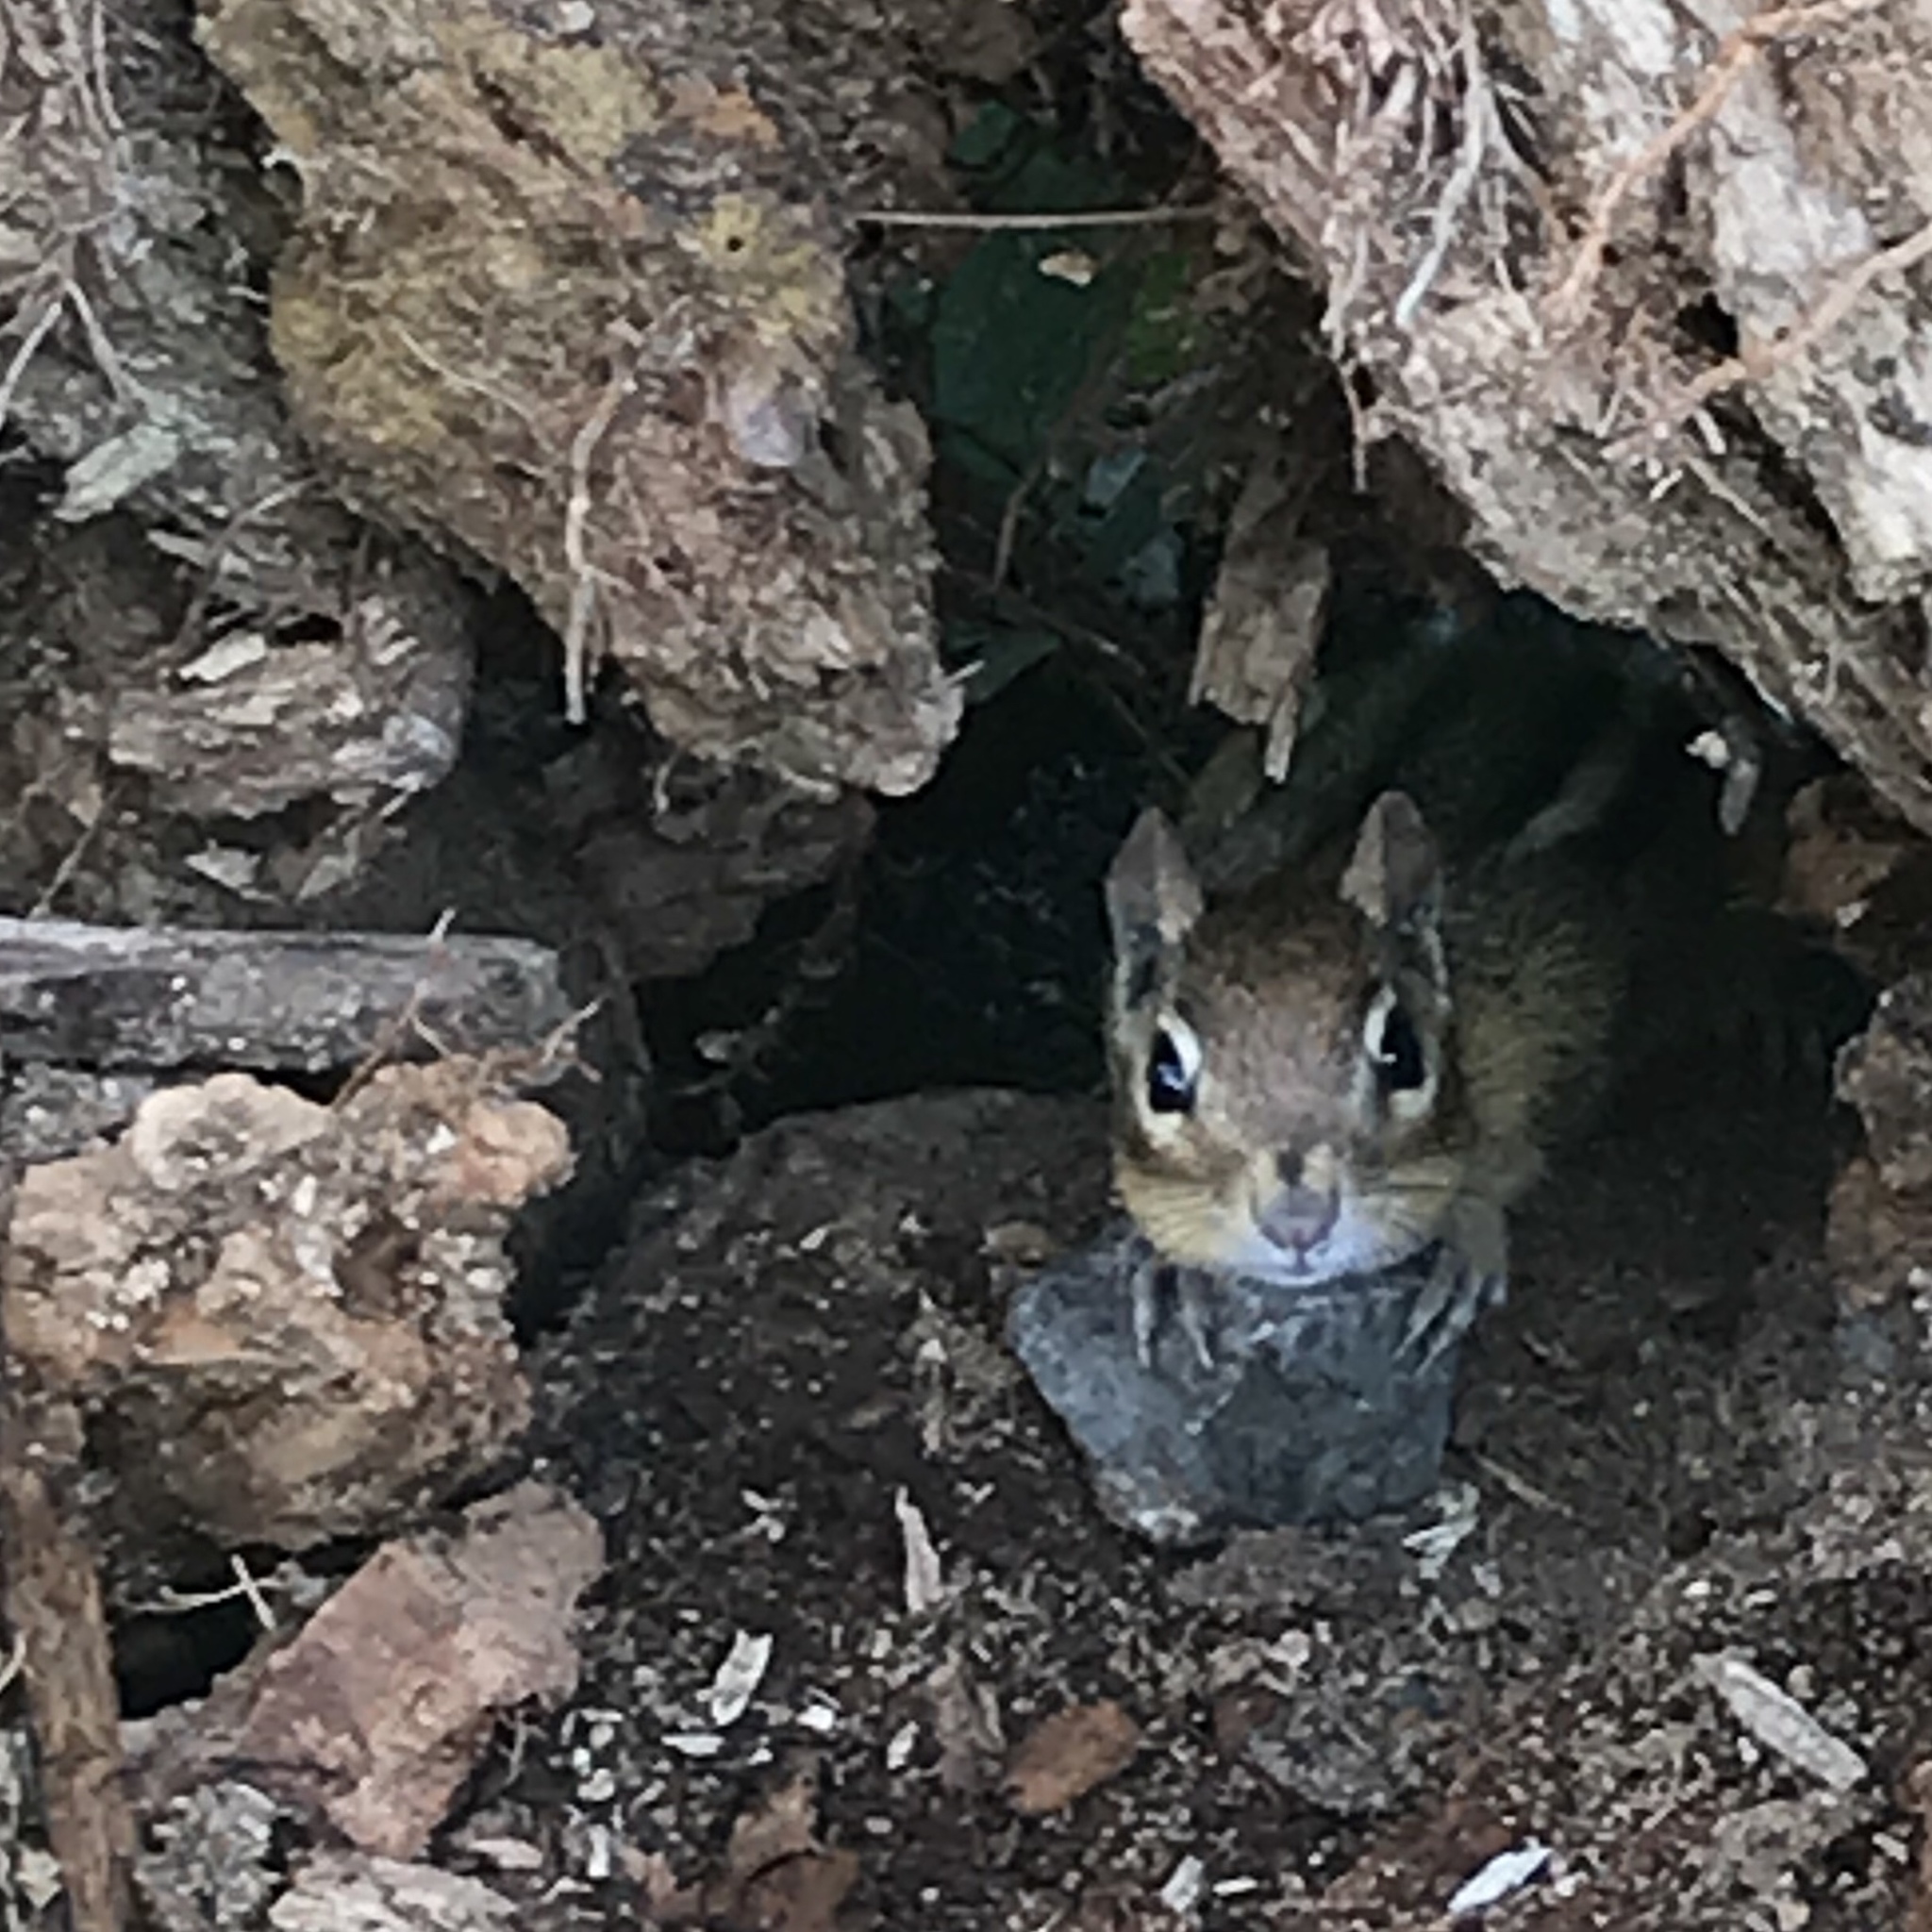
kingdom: Animalia
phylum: Chordata
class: Mammalia
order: Rodentia
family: Sciuridae
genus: Tamias
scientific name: Tamias striatus
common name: Eastern chipmunk
